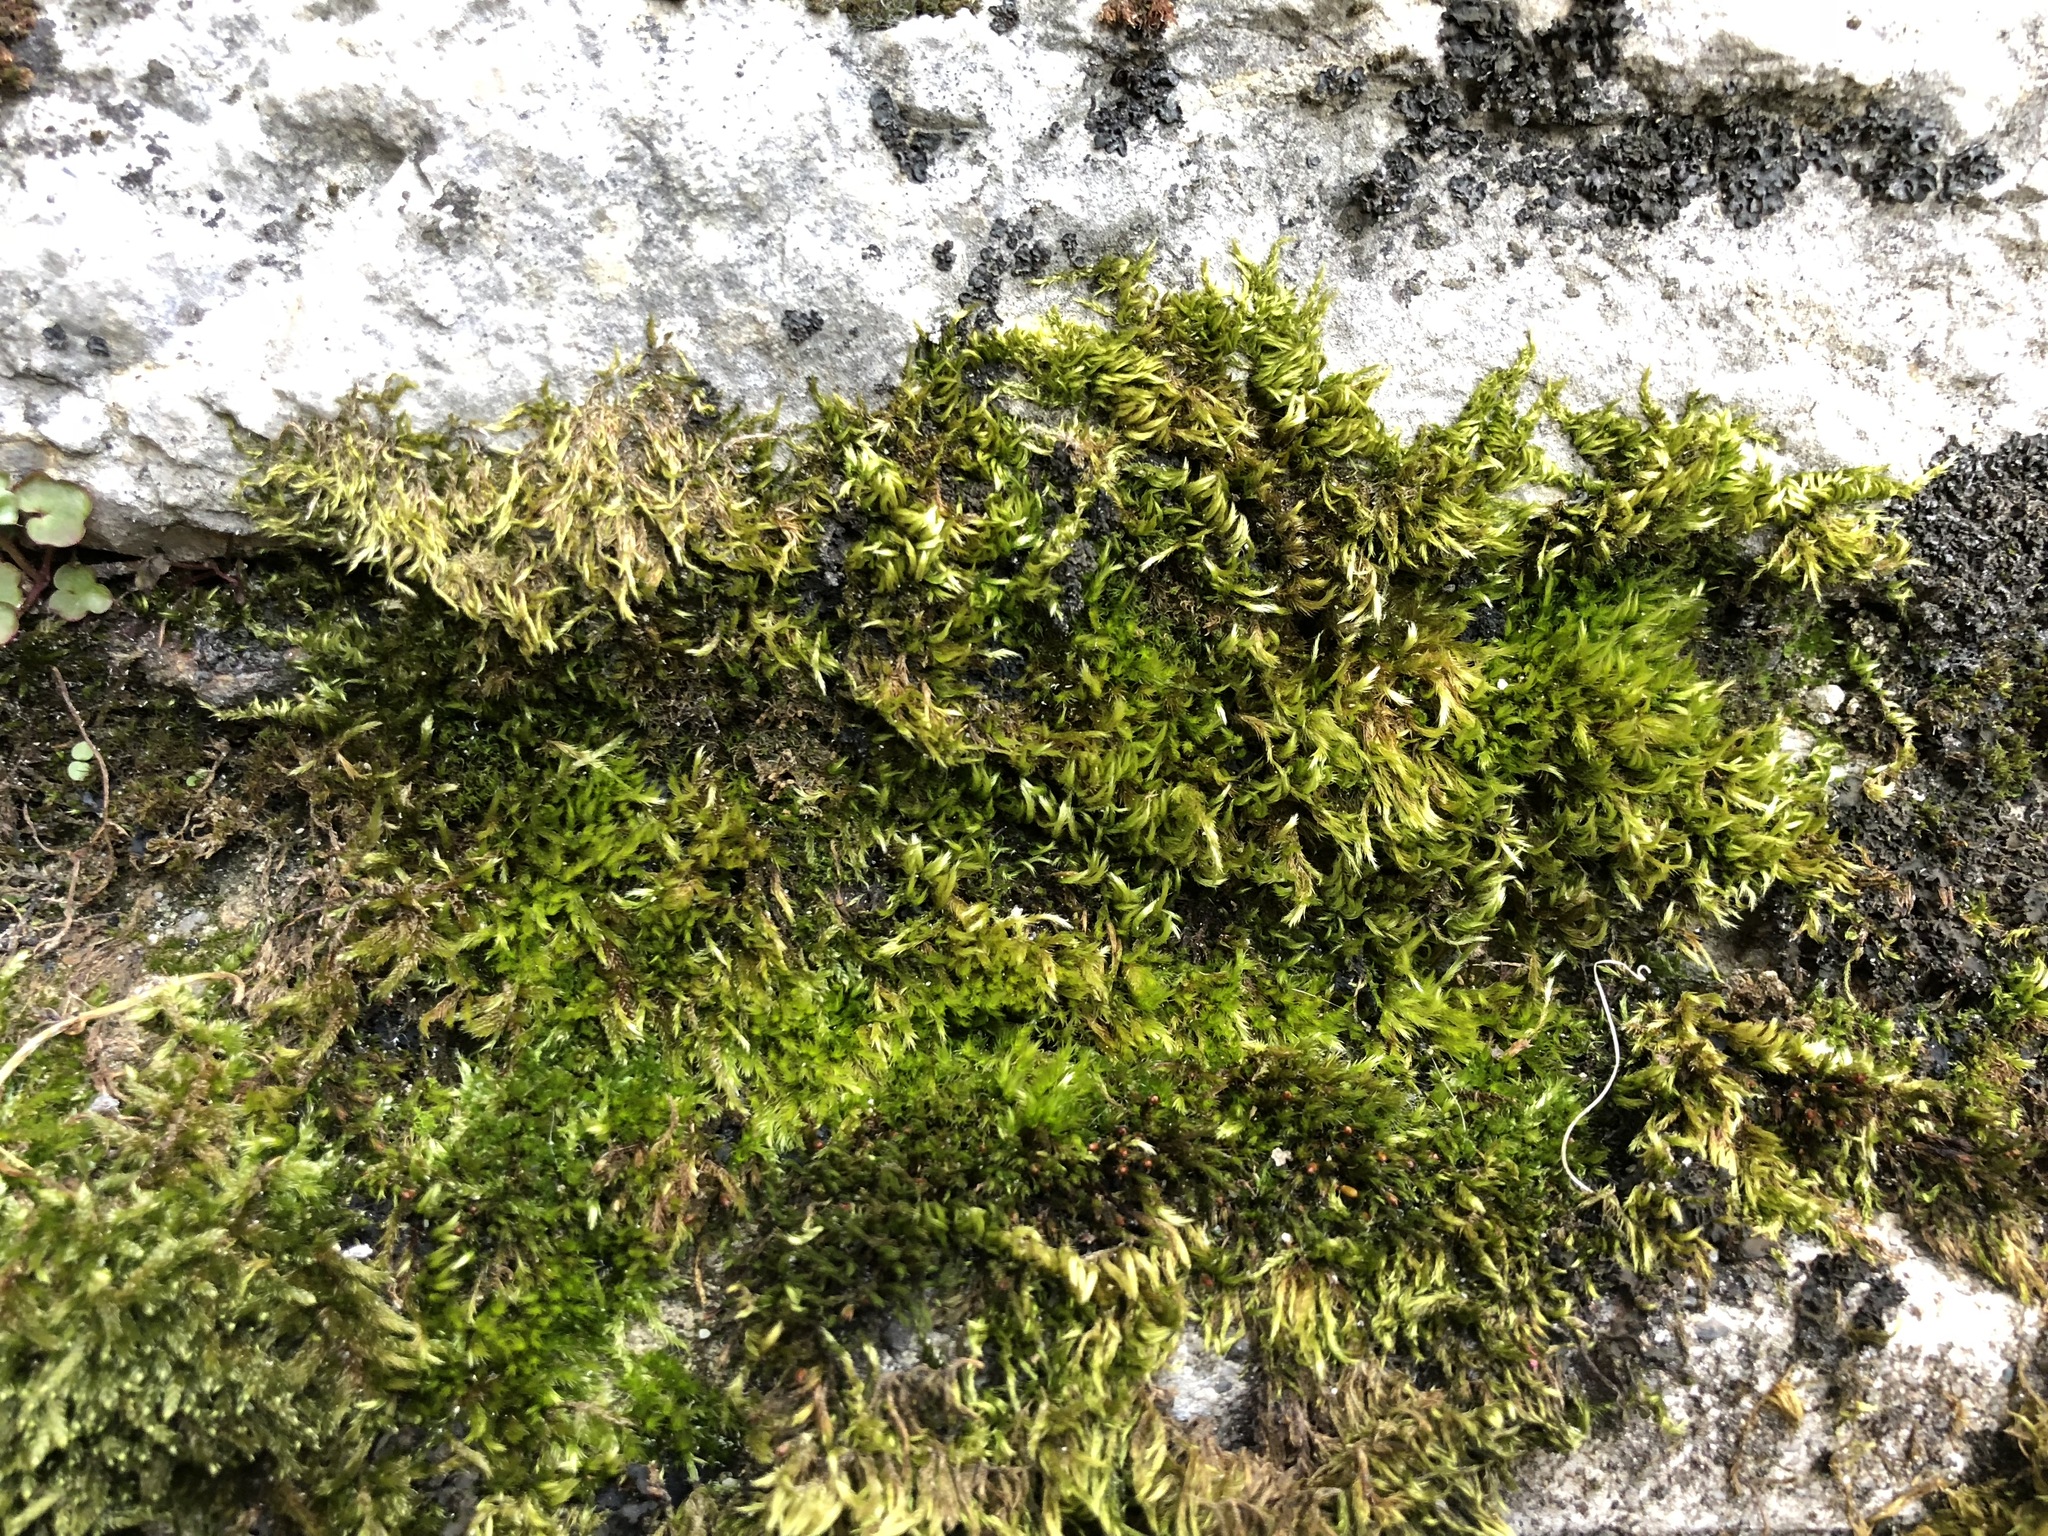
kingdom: Plantae
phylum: Bryophyta
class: Bryopsida
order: Hypnales
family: Brachytheciaceae
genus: Homalothecium
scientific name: Homalothecium sericeum
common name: Silky wall feather-moss
